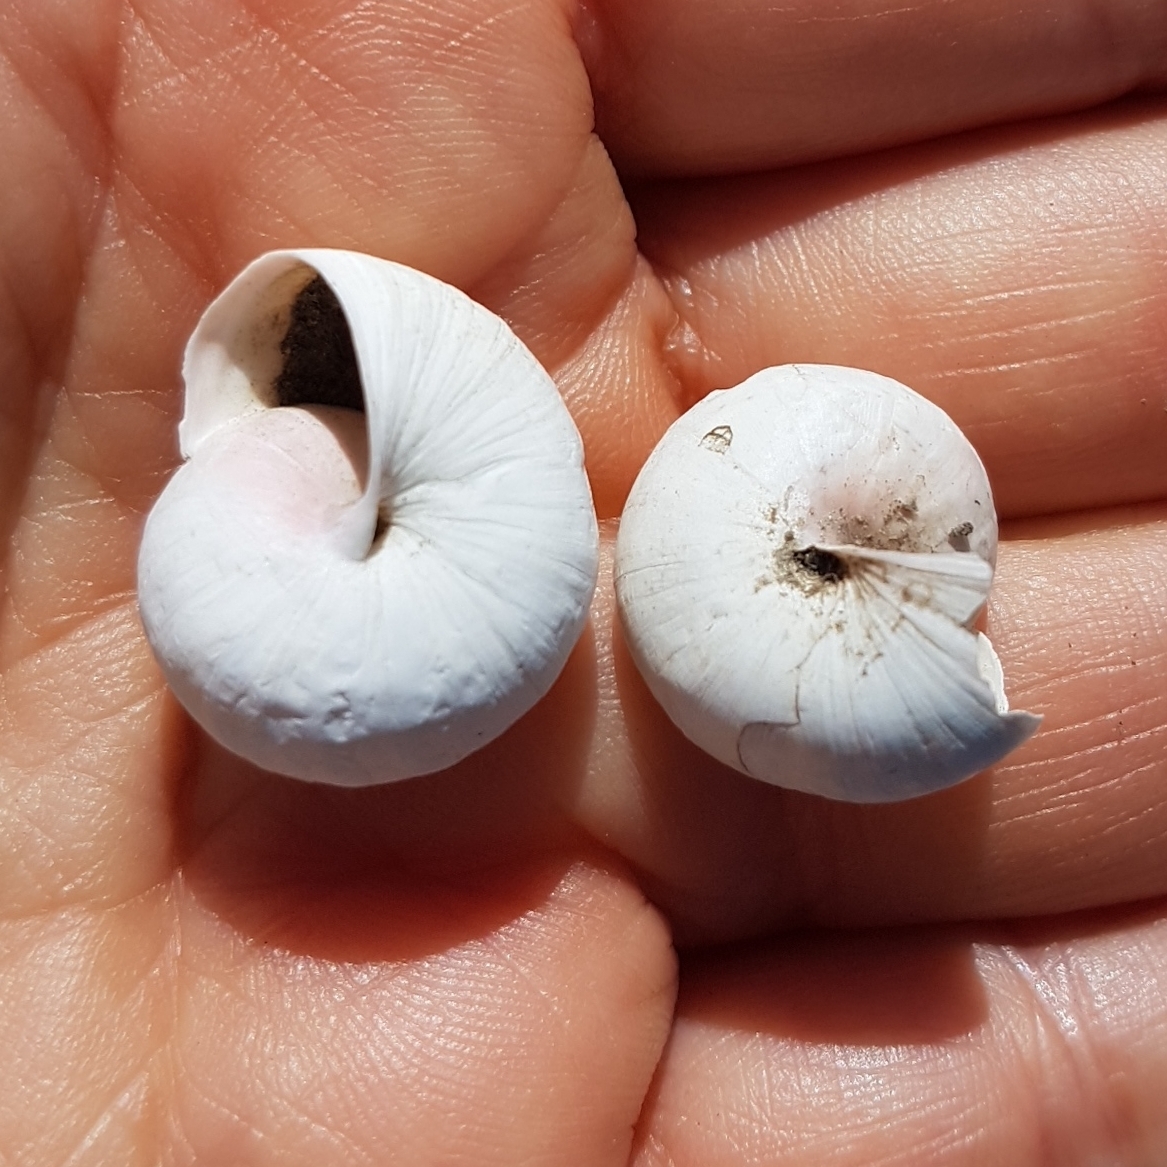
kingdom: Animalia
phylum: Mollusca
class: Gastropoda
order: Stylommatophora
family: Helicidae
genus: Theba
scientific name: Theba pisana
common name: White snail
